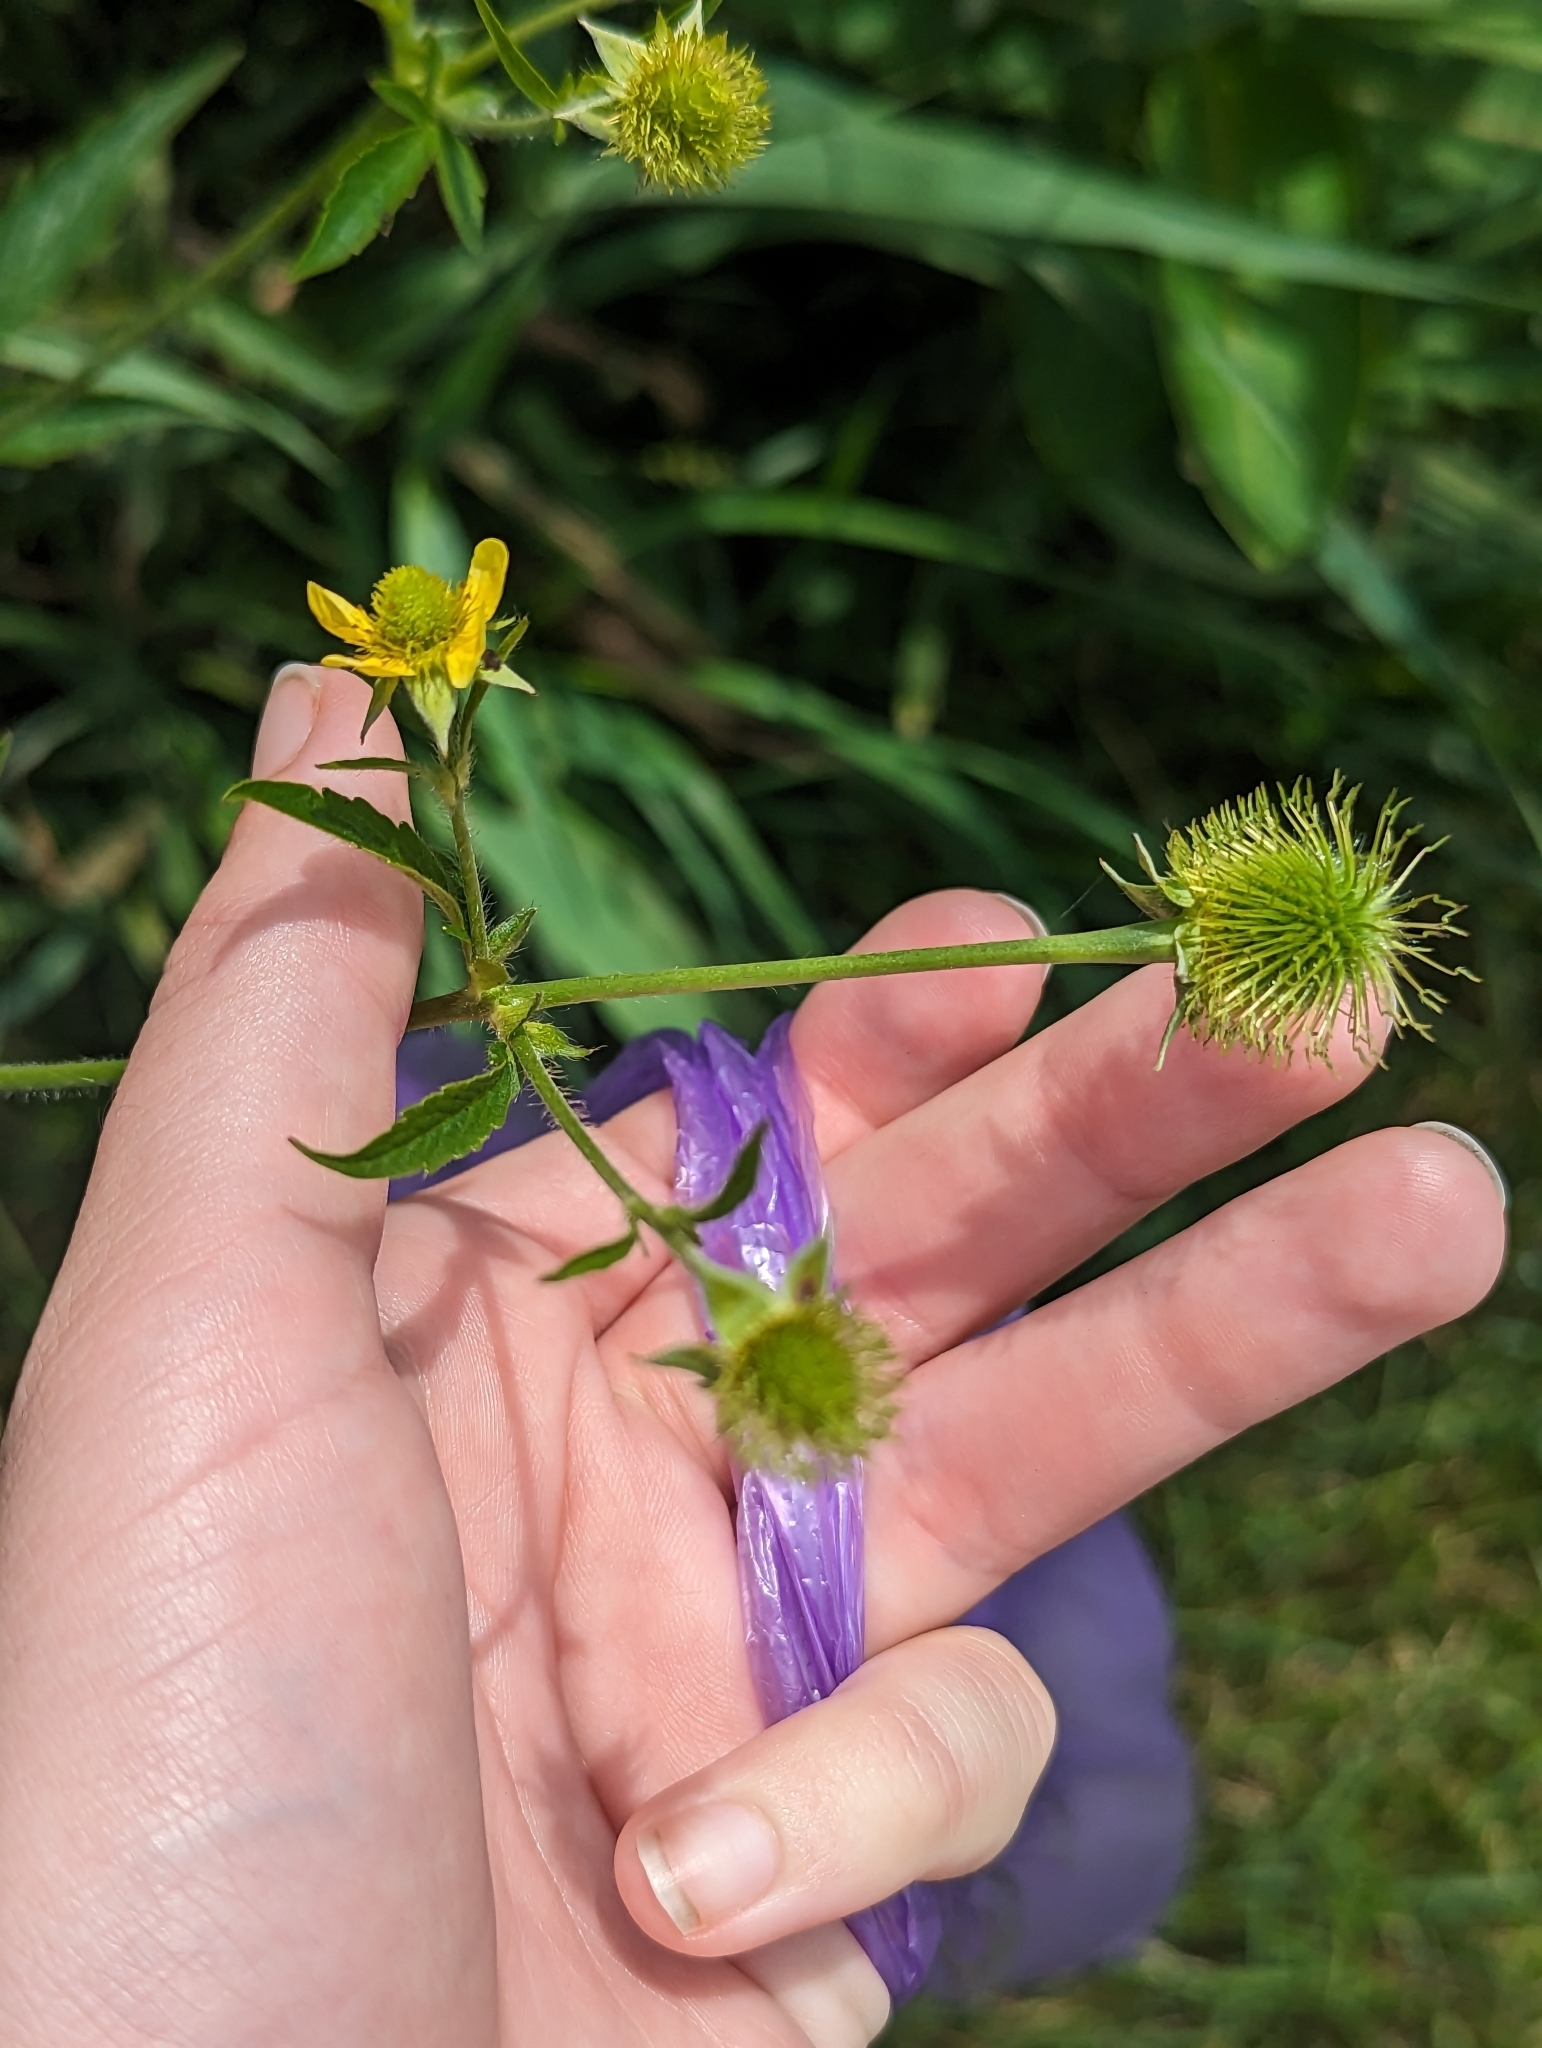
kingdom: Plantae
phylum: Tracheophyta
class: Magnoliopsida
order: Rosales
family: Rosaceae
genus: Geum
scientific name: Geum aleppicum
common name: Yellow avens
